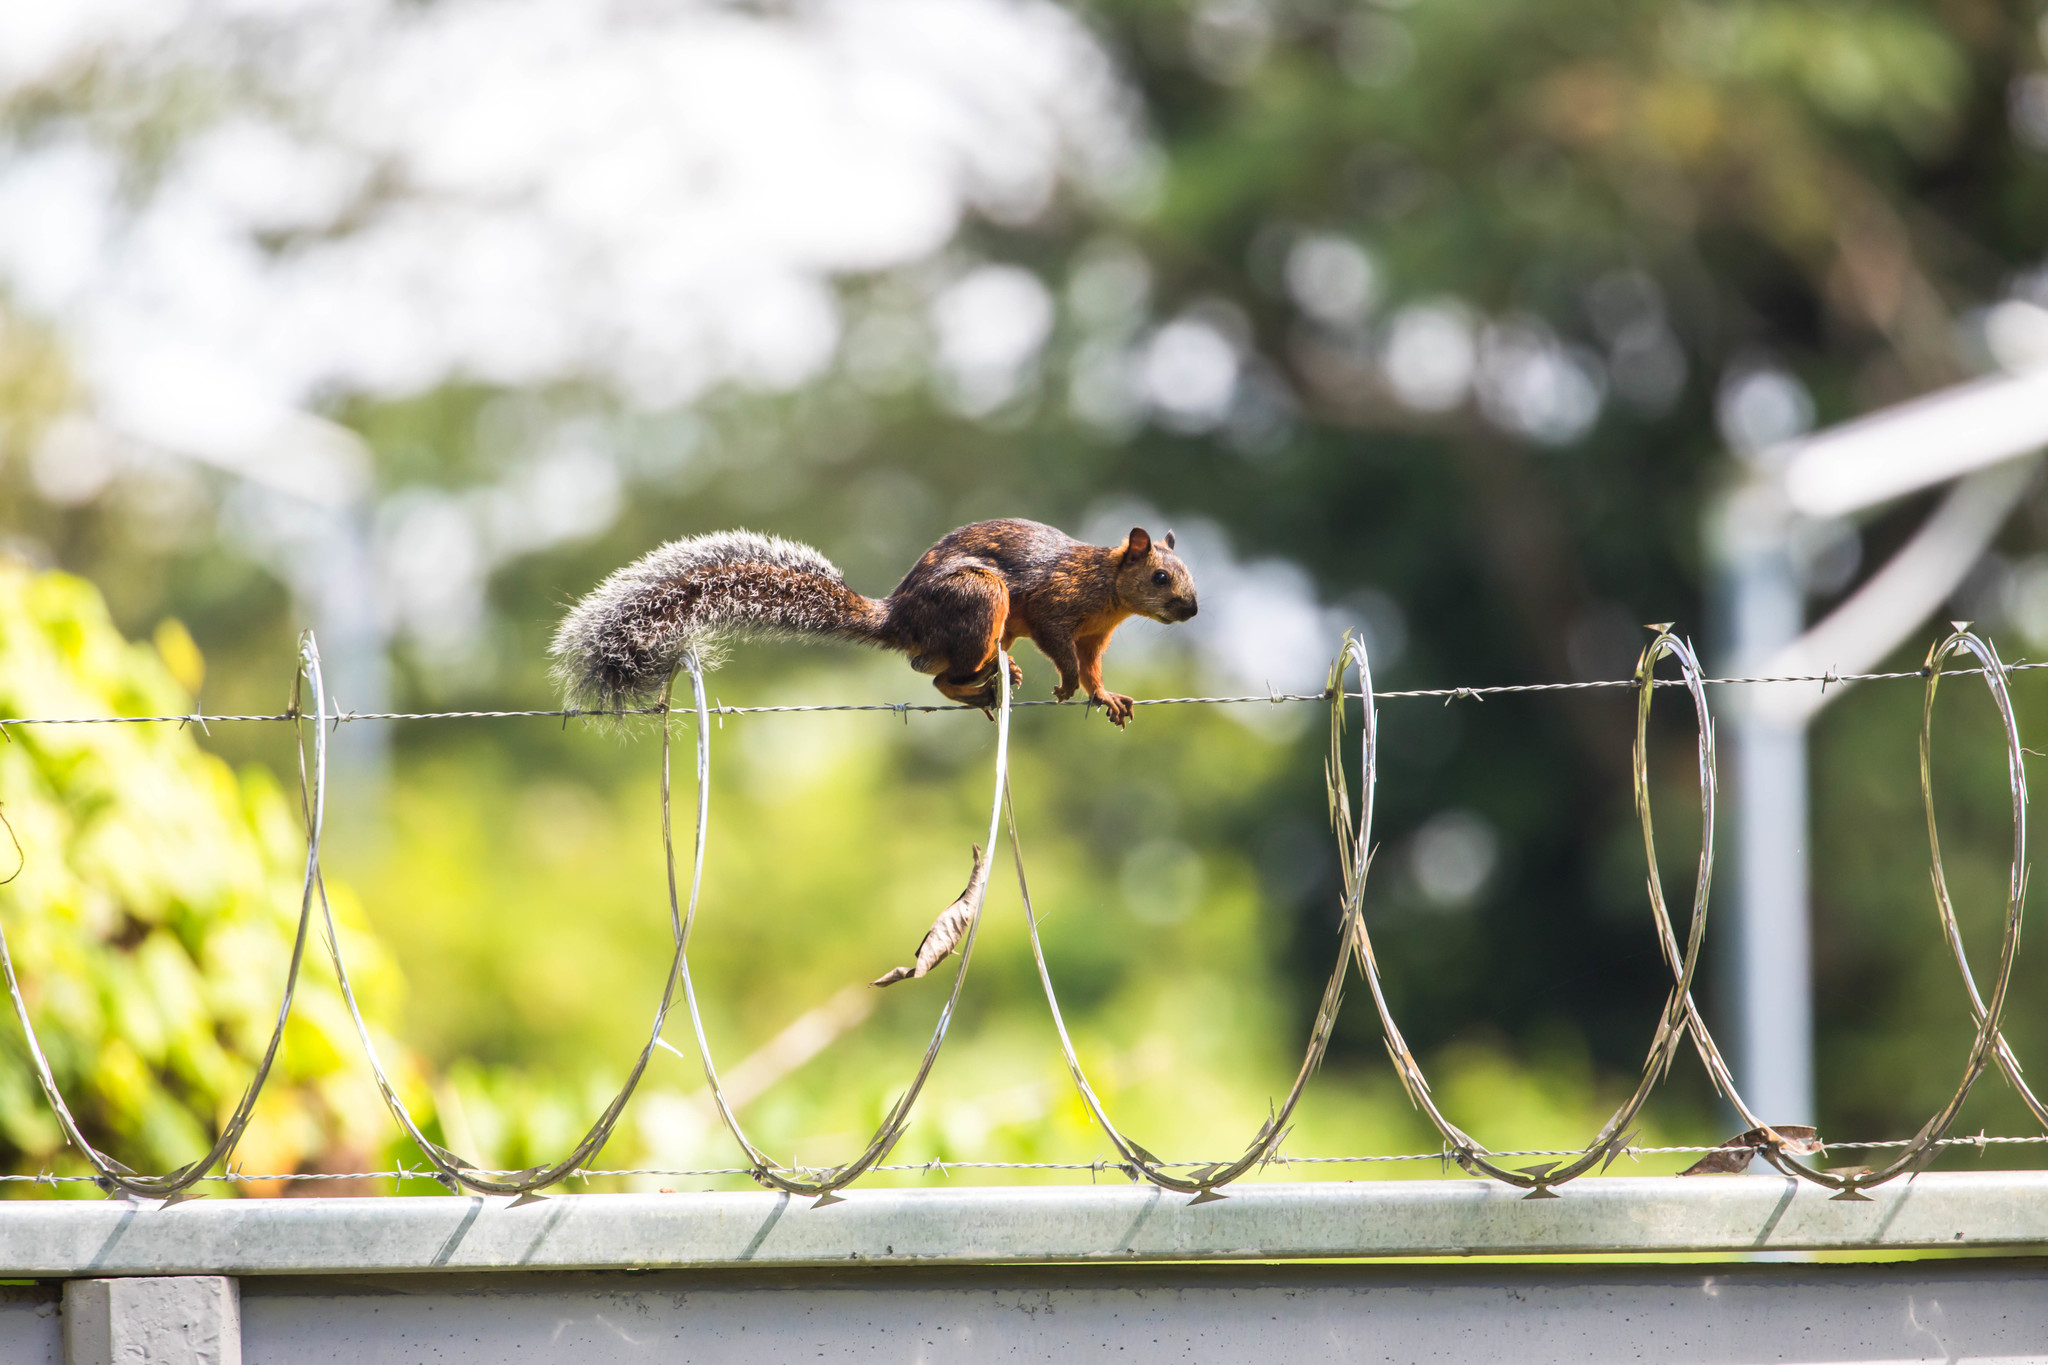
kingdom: Animalia
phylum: Chordata
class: Mammalia
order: Rodentia
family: Sciuridae
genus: Sciurus
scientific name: Sciurus variegatoides
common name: Variegated squirrel
